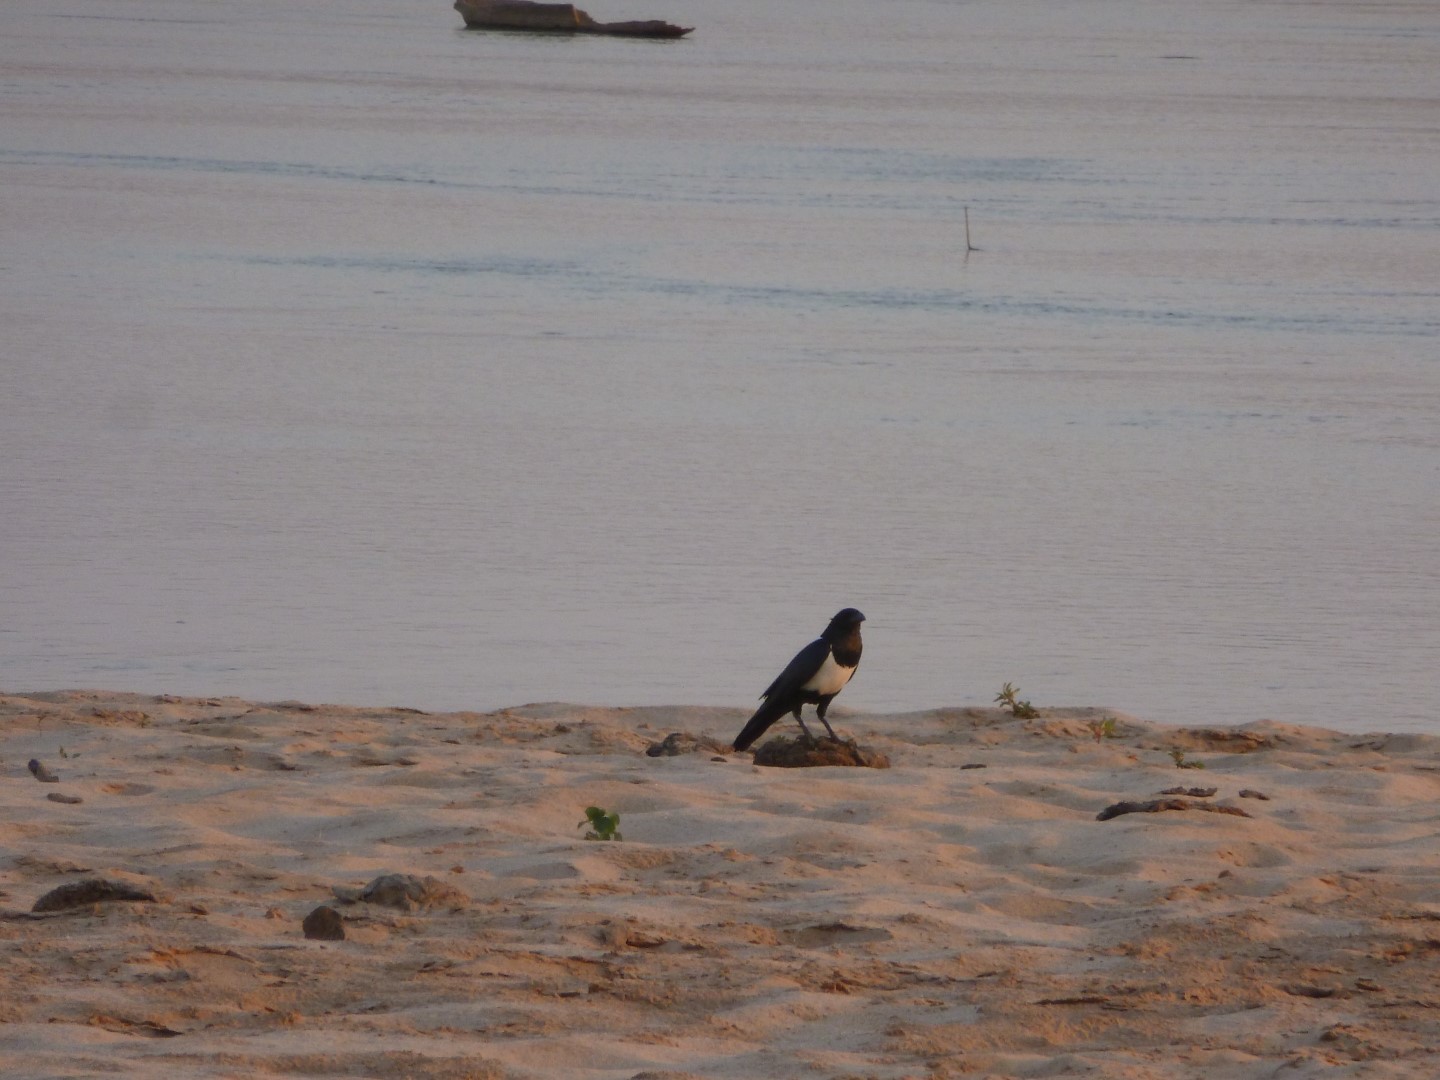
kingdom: Animalia
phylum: Chordata
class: Aves
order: Passeriformes
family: Corvidae
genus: Corvus
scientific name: Corvus albus
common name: Pied crow
